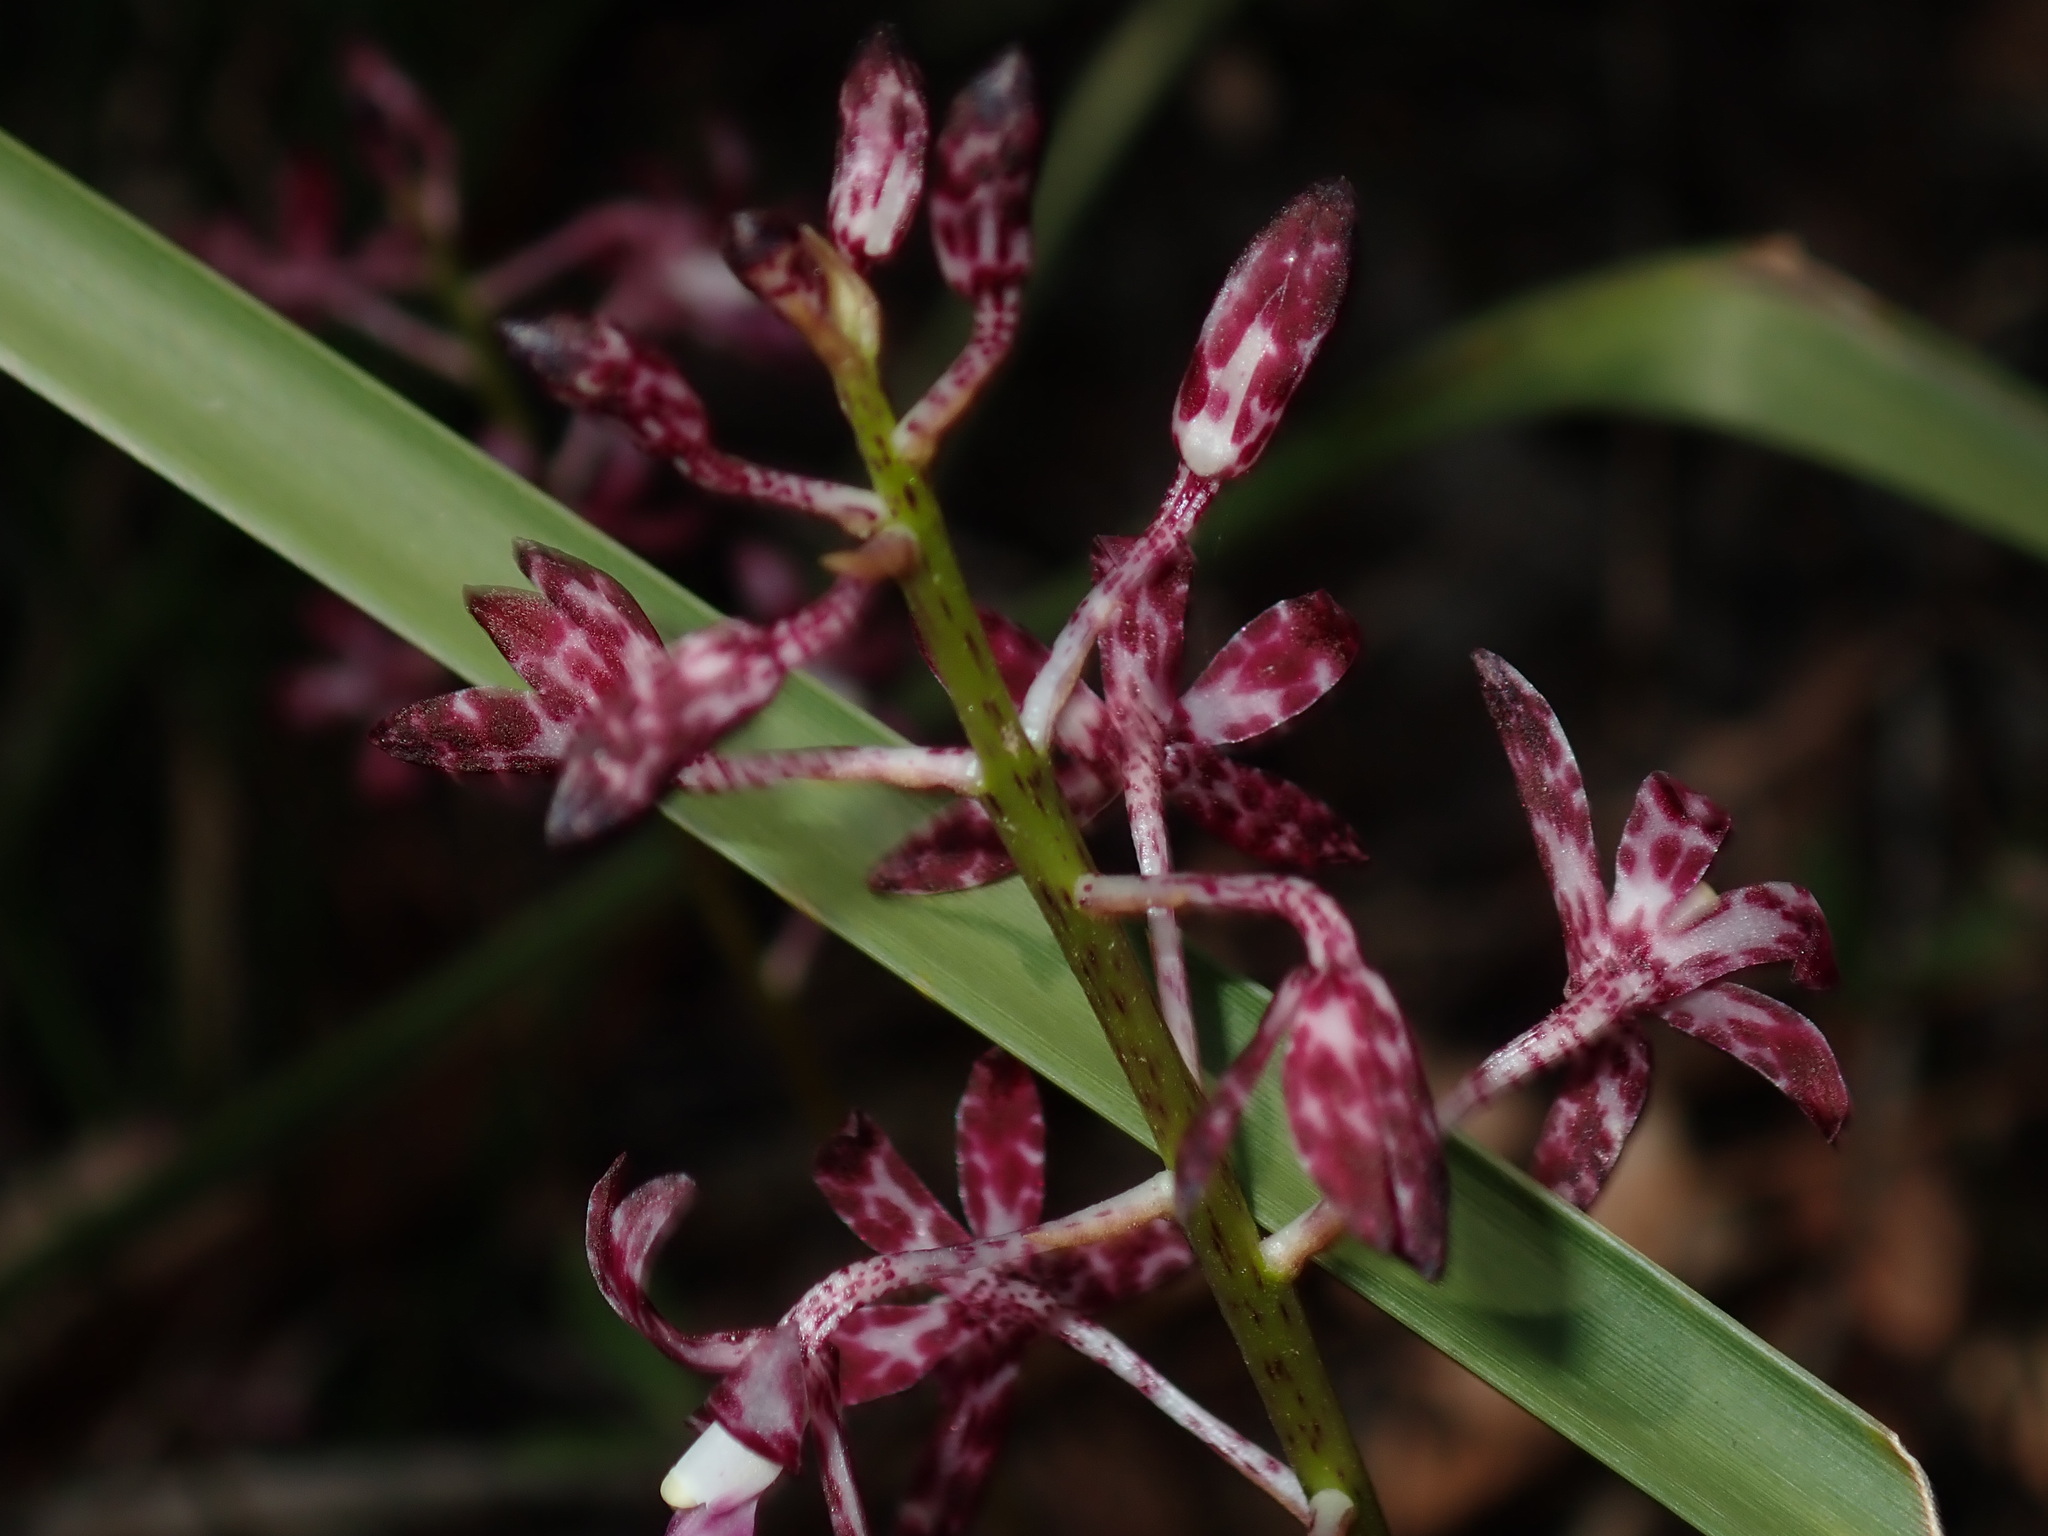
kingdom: Plantae
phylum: Tracheophyta
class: Liliopsida
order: Asparagales
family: Orchidaceae
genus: Dipodium
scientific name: Dipodium variegatum
